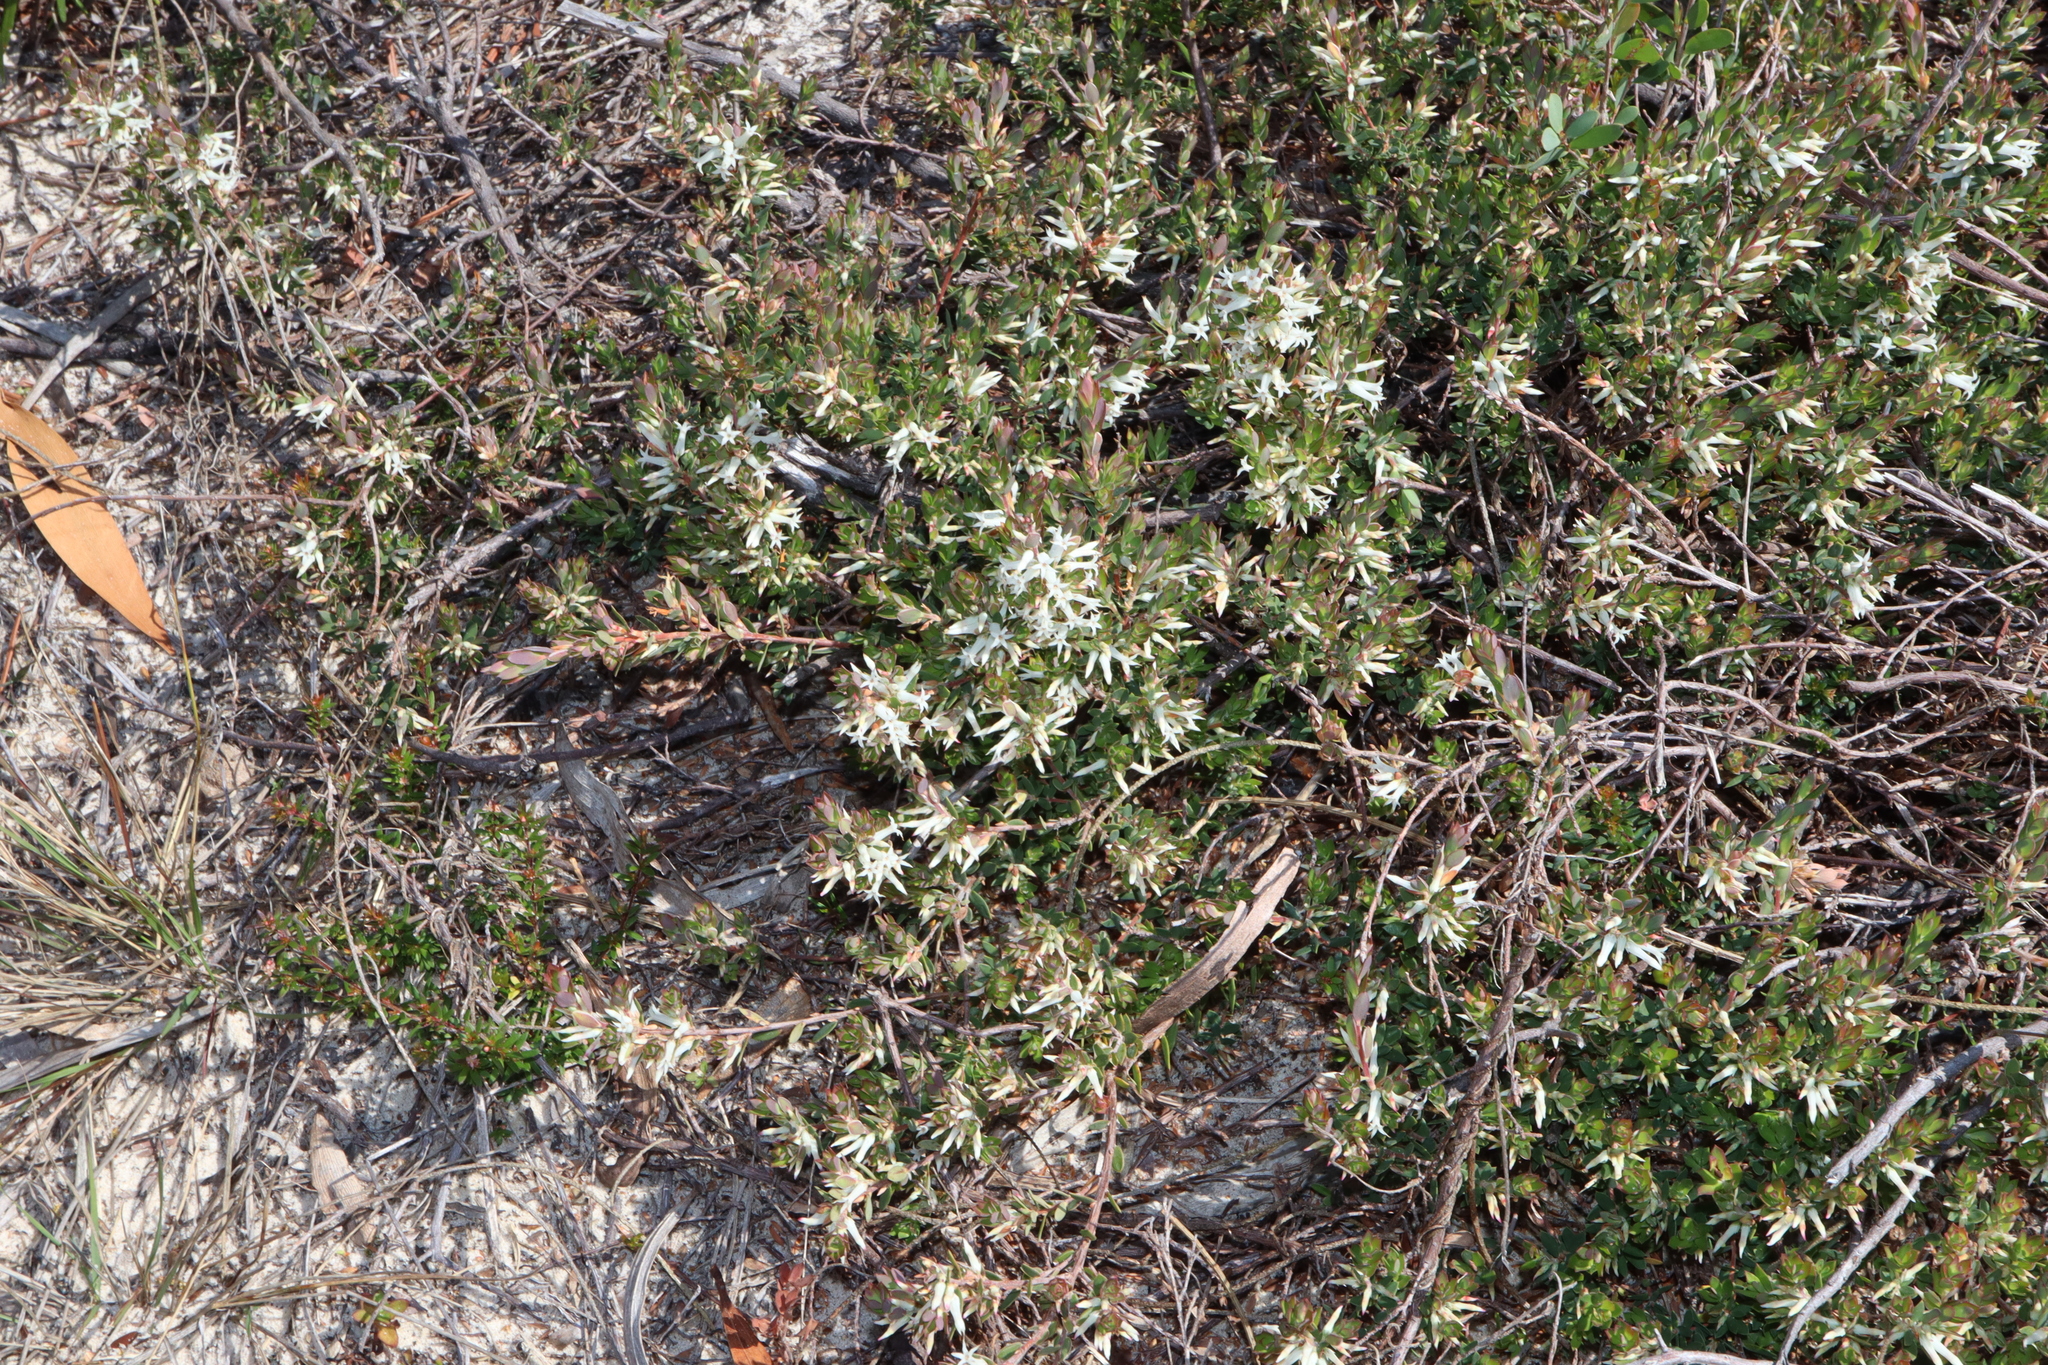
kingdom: Plantae
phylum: Tracheophyta
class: Magnoliopsida
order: Ericales
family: Ericaceae
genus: Brachyloma
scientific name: Brachyloma daphnoides
